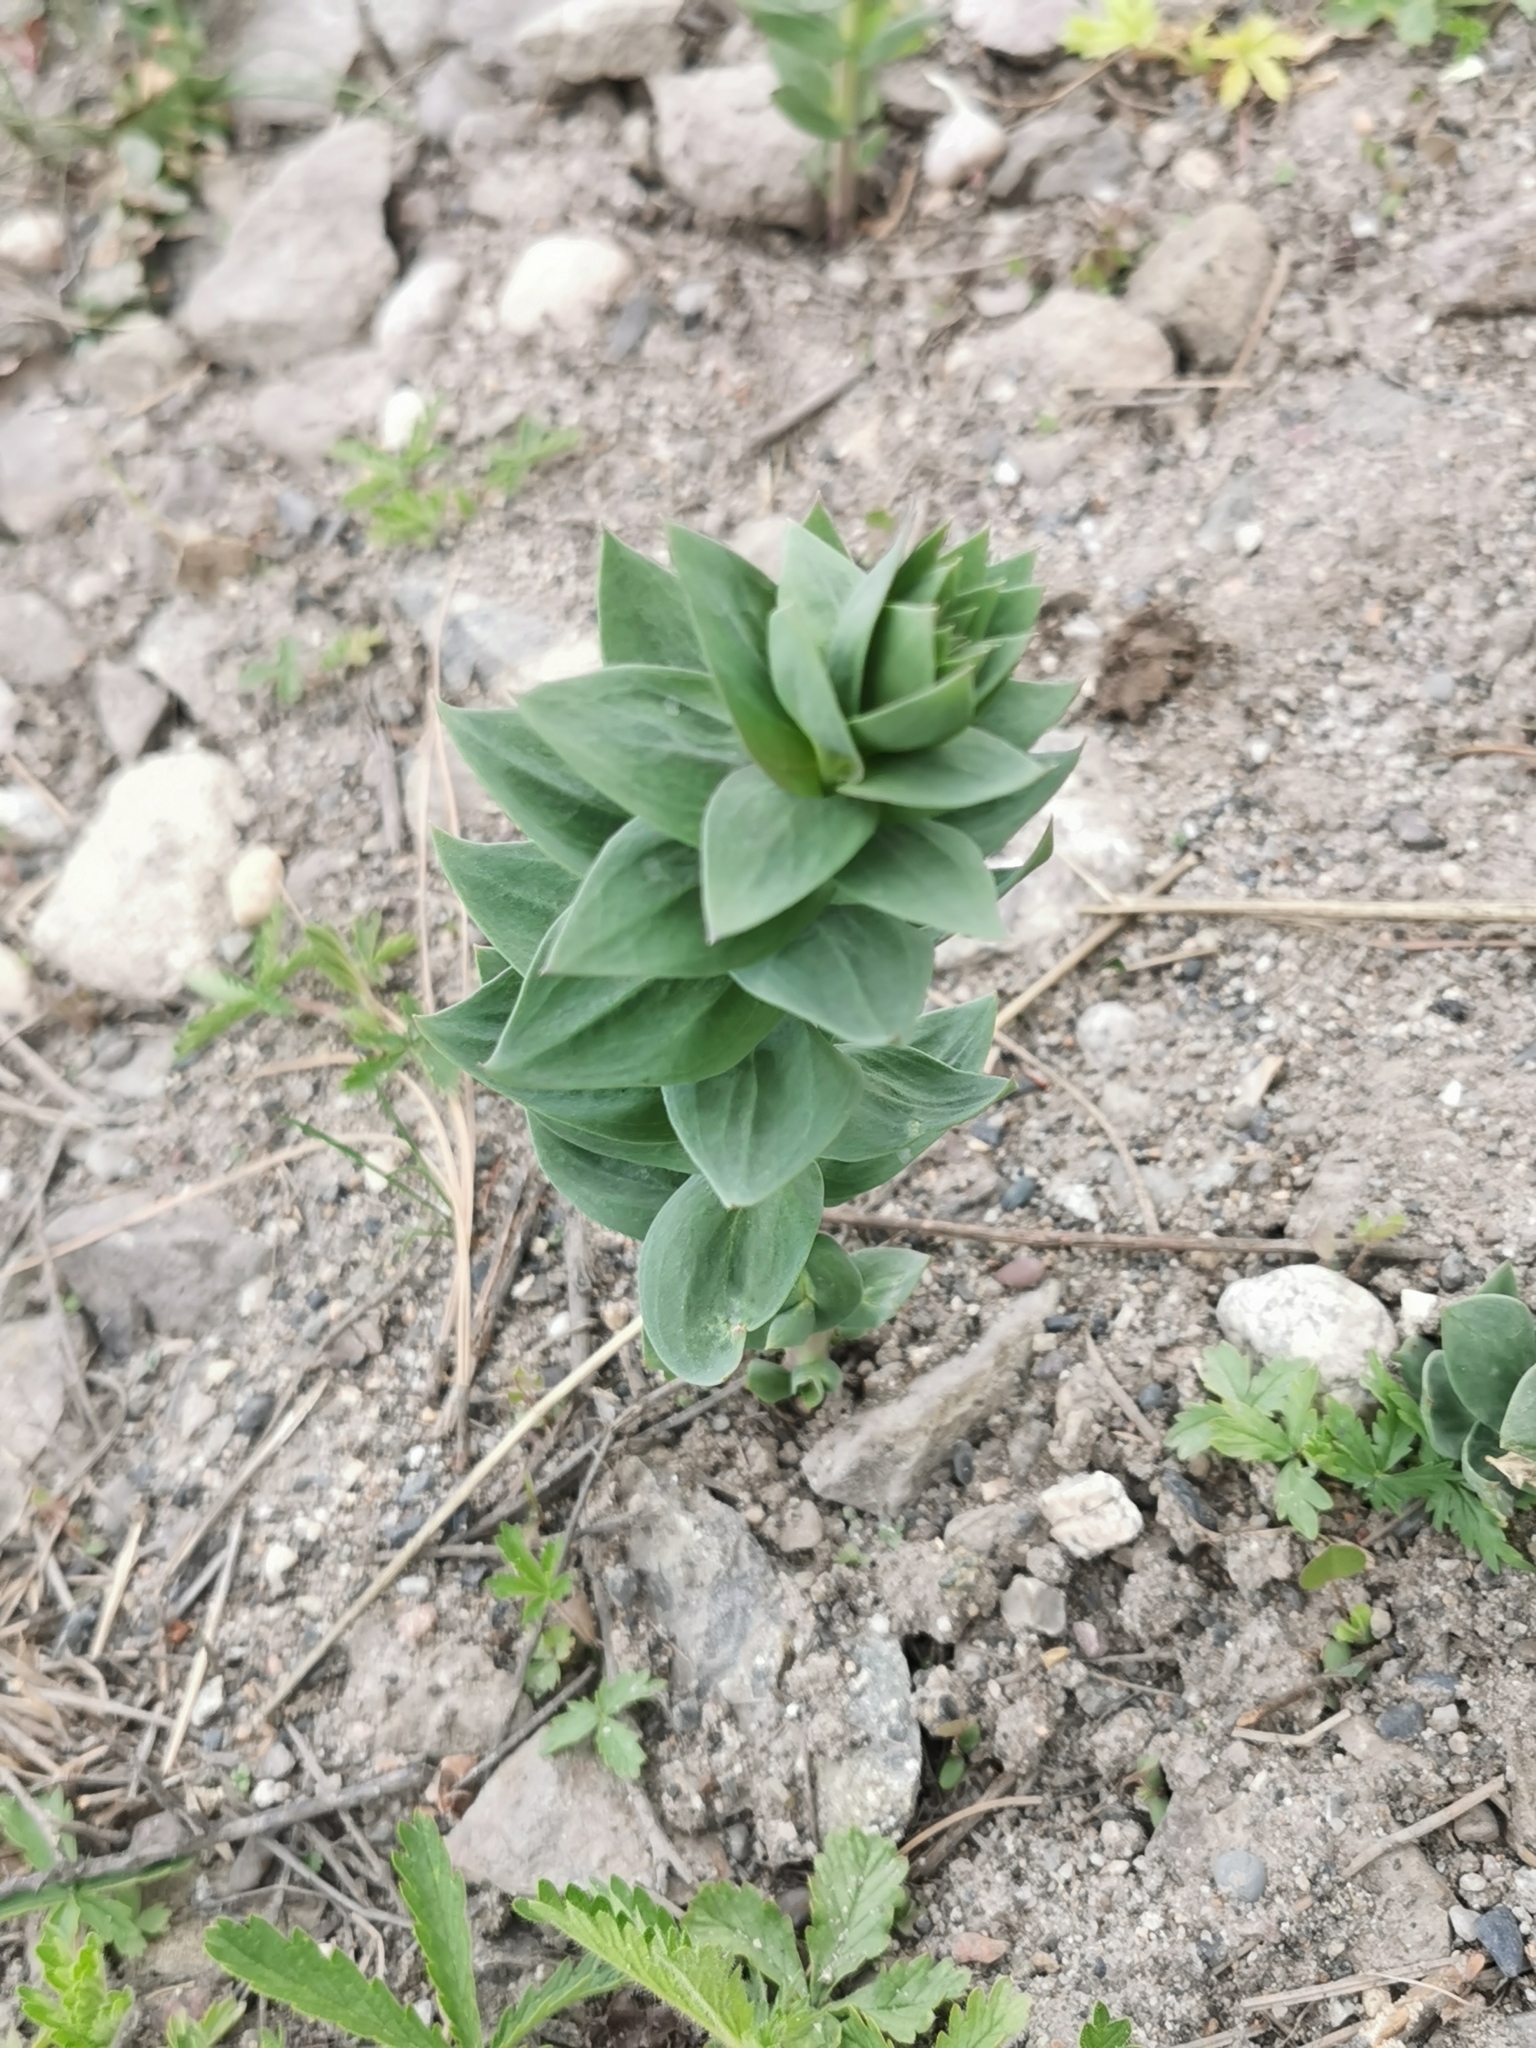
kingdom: Plantae
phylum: Tracheophyta
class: Magnoliopsida
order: Lamiales
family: Plantaginaceae
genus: Linaria
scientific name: Linaria dalmatica
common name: Dalmatian toadflax
